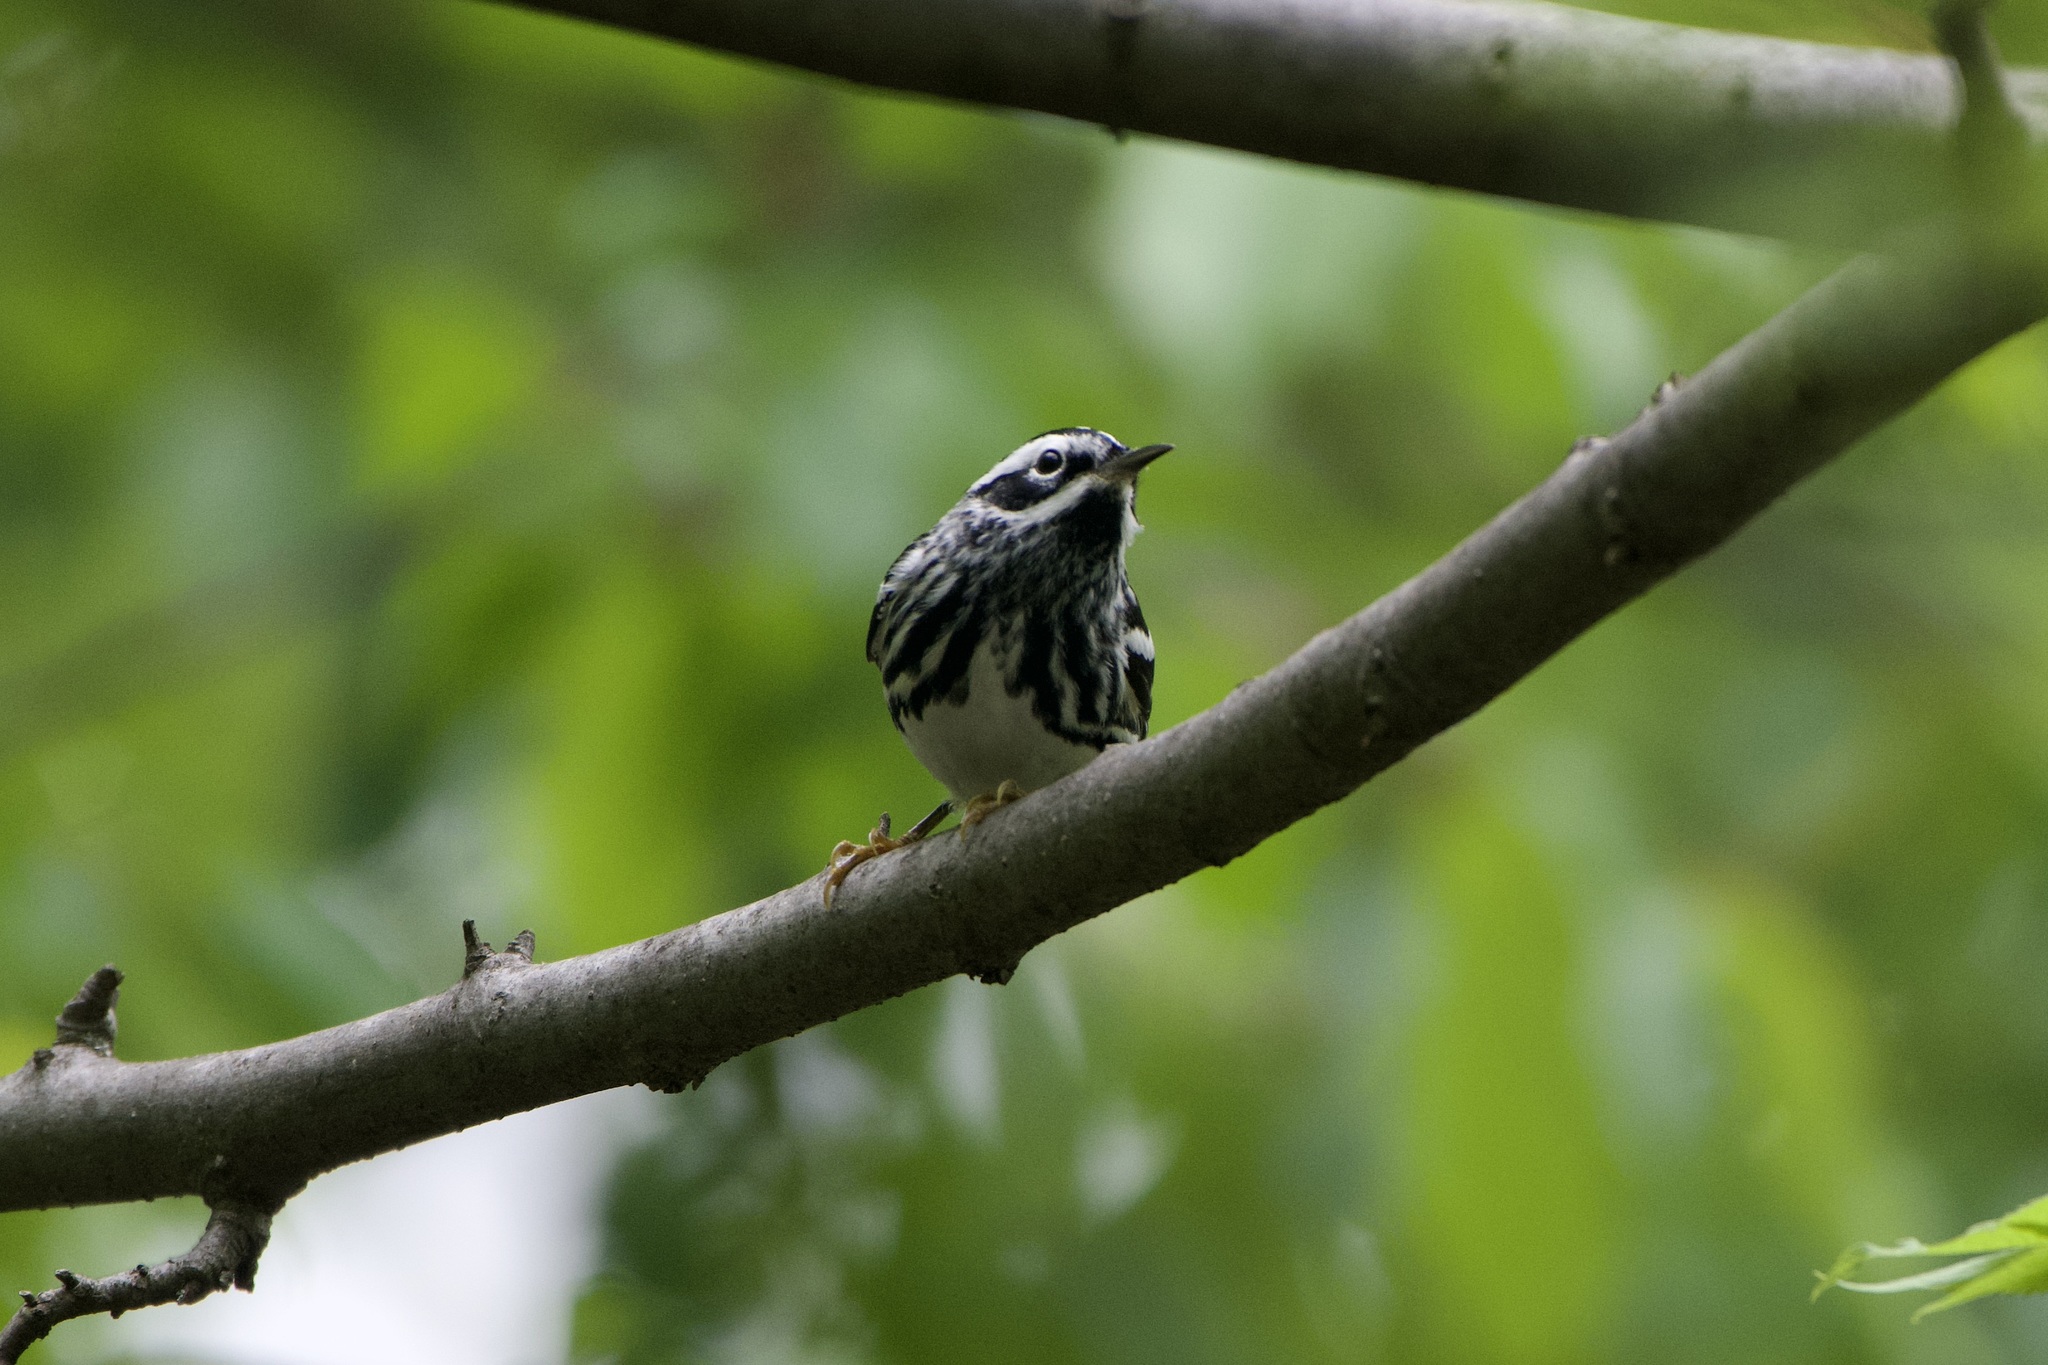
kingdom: Animalia
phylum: Chordata
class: Aves
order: Passeriformes
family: Parulidae
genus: Mniotilta
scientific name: Mniotilta varia
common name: Black-and-white warbler
